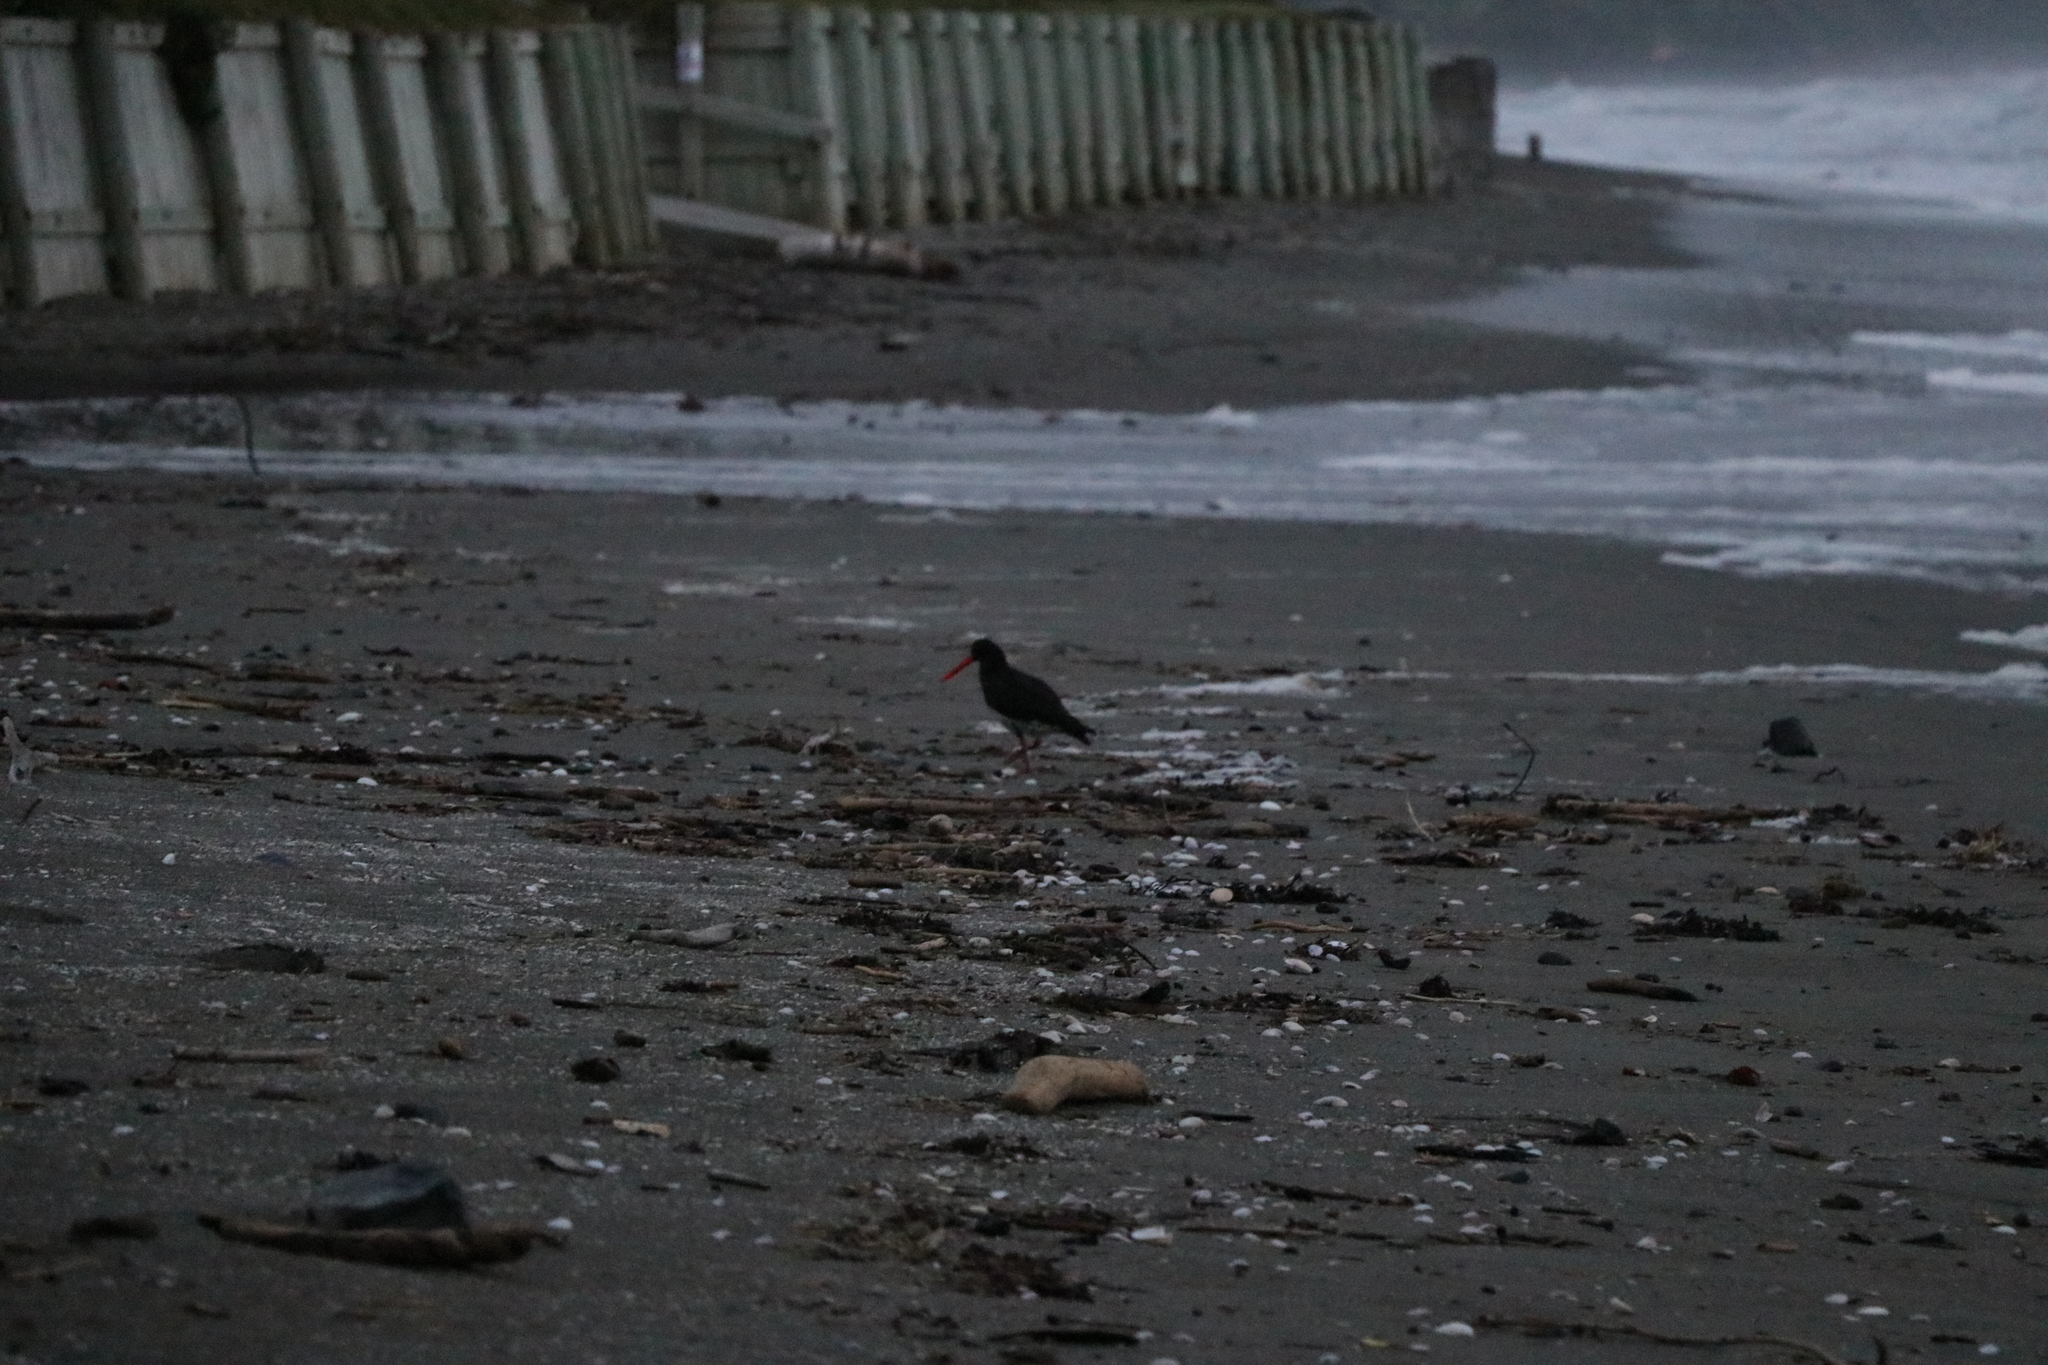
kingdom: Animalia
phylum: Chordata
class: Aves
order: Charadriiformes
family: Haematopodidae
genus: Haematopus
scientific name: Haematopus unicolor
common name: Variable oystercatcher
